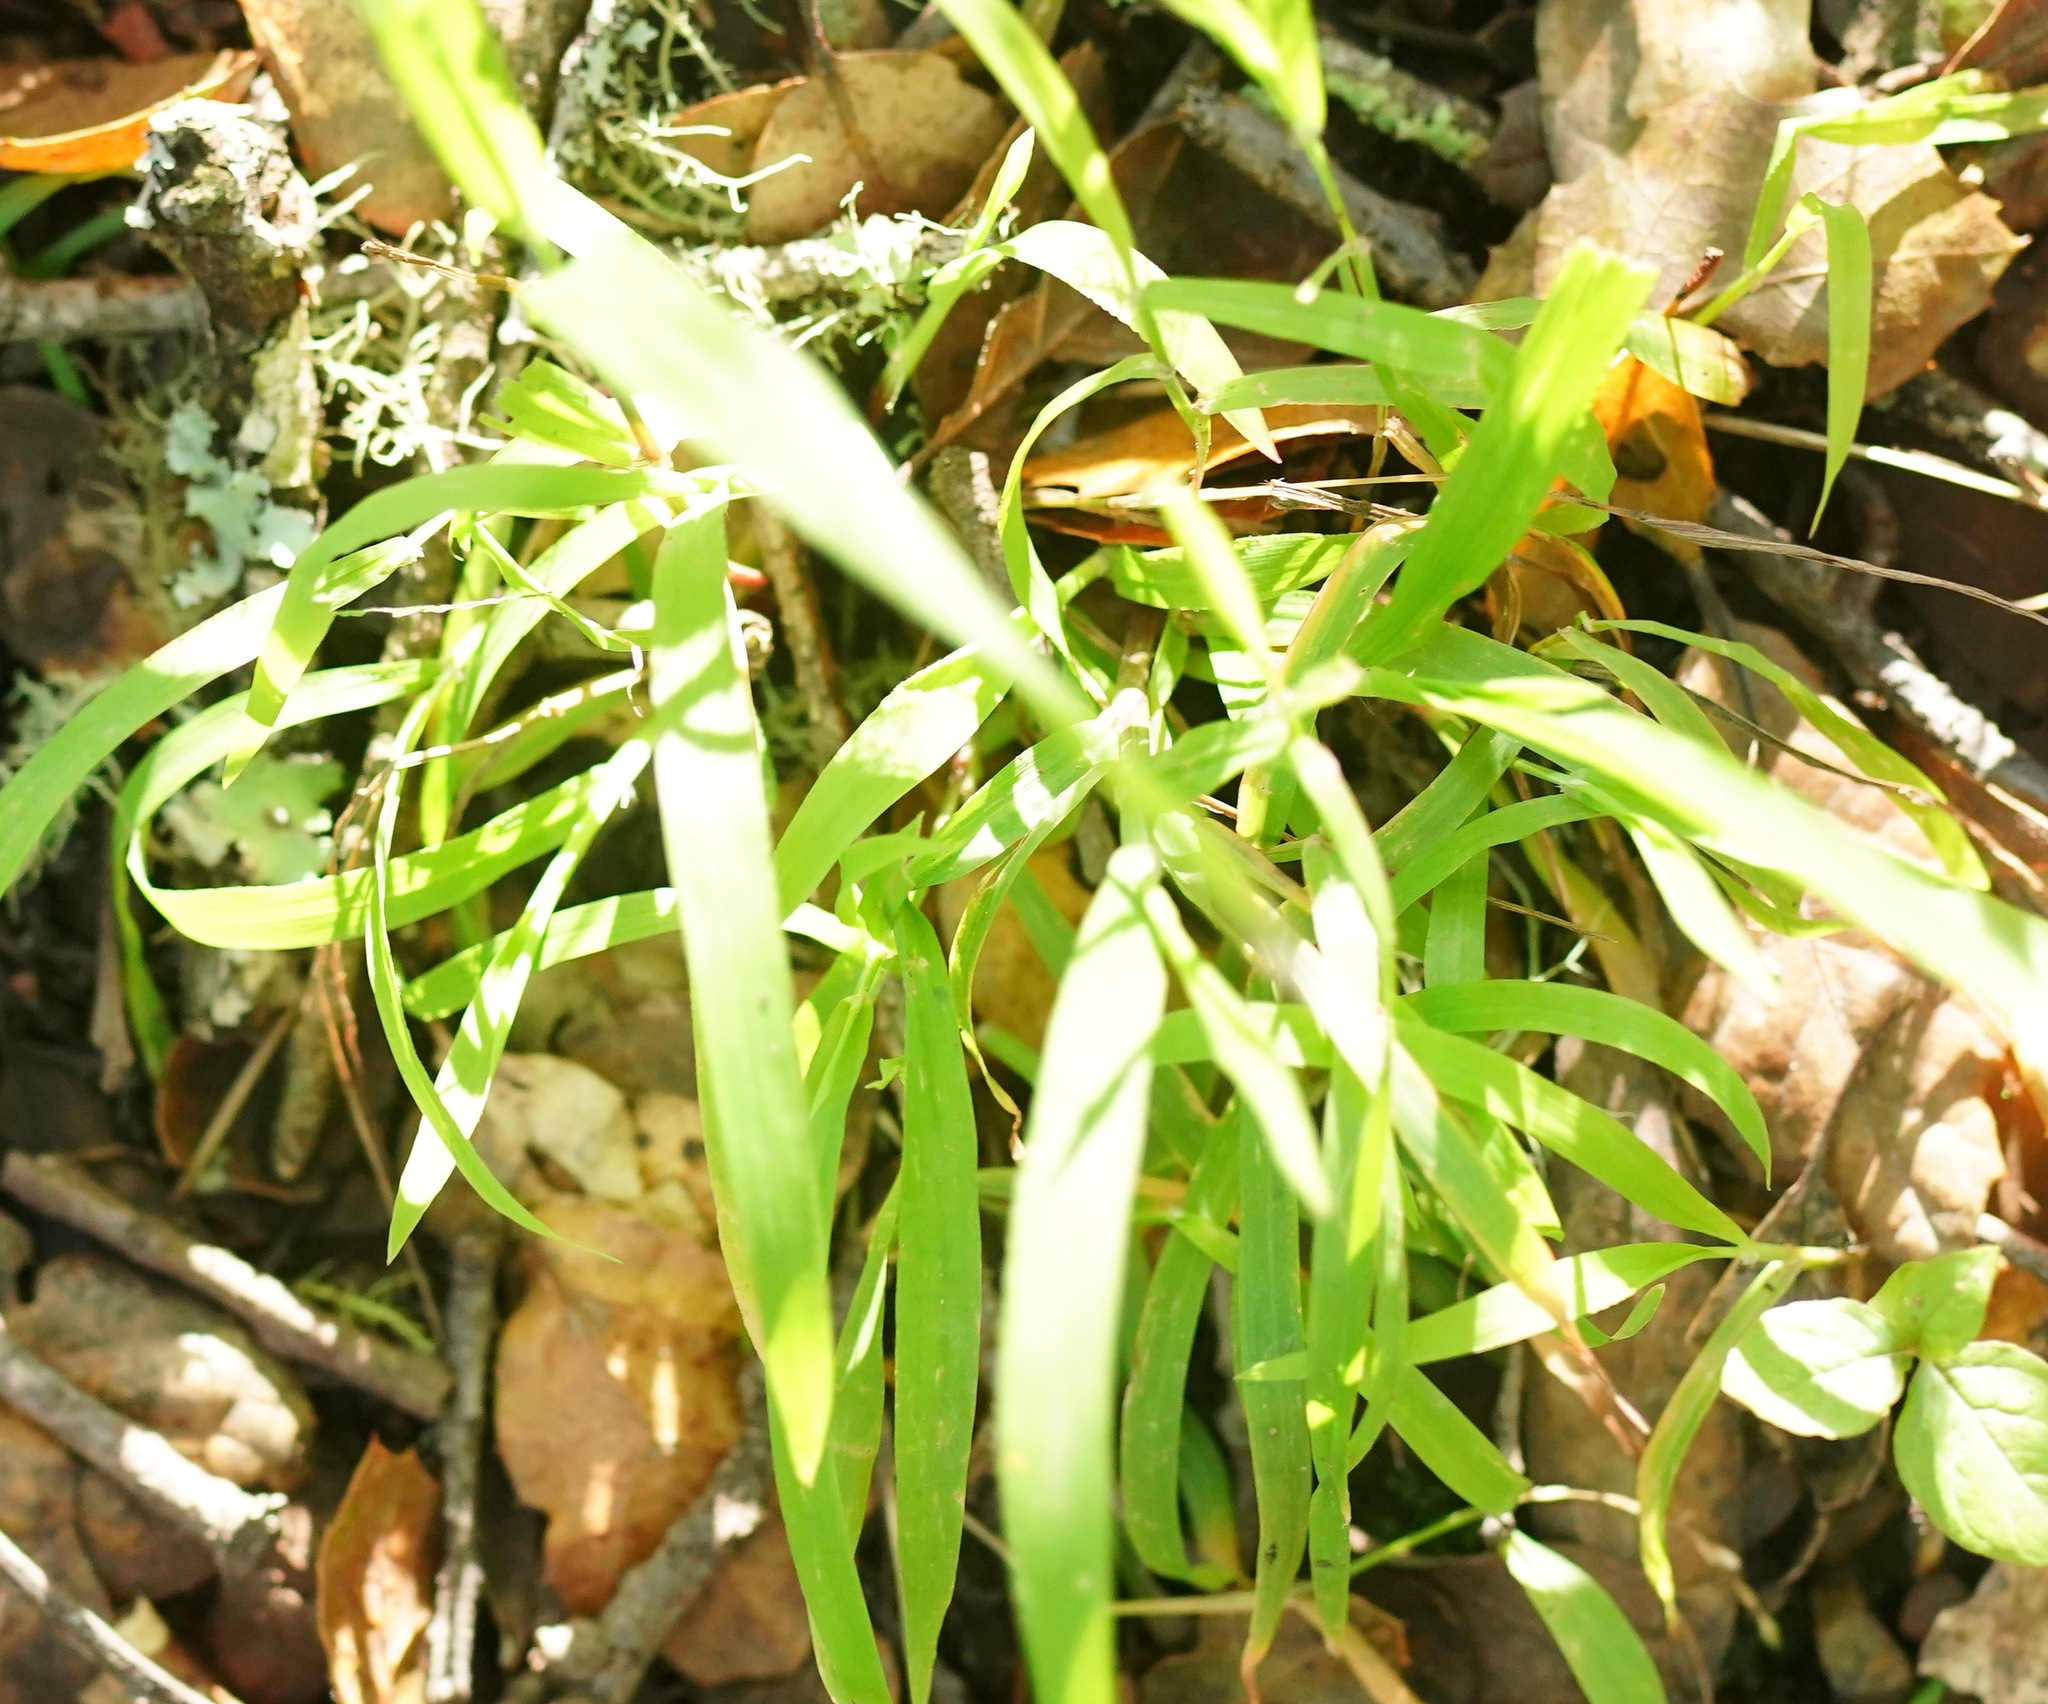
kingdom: Plantae
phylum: Tracheophyta
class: Liliopsida
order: Poales
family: Poaceae
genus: Ehrharta
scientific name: Ehrharta erecta
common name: Panic veldtgrass
